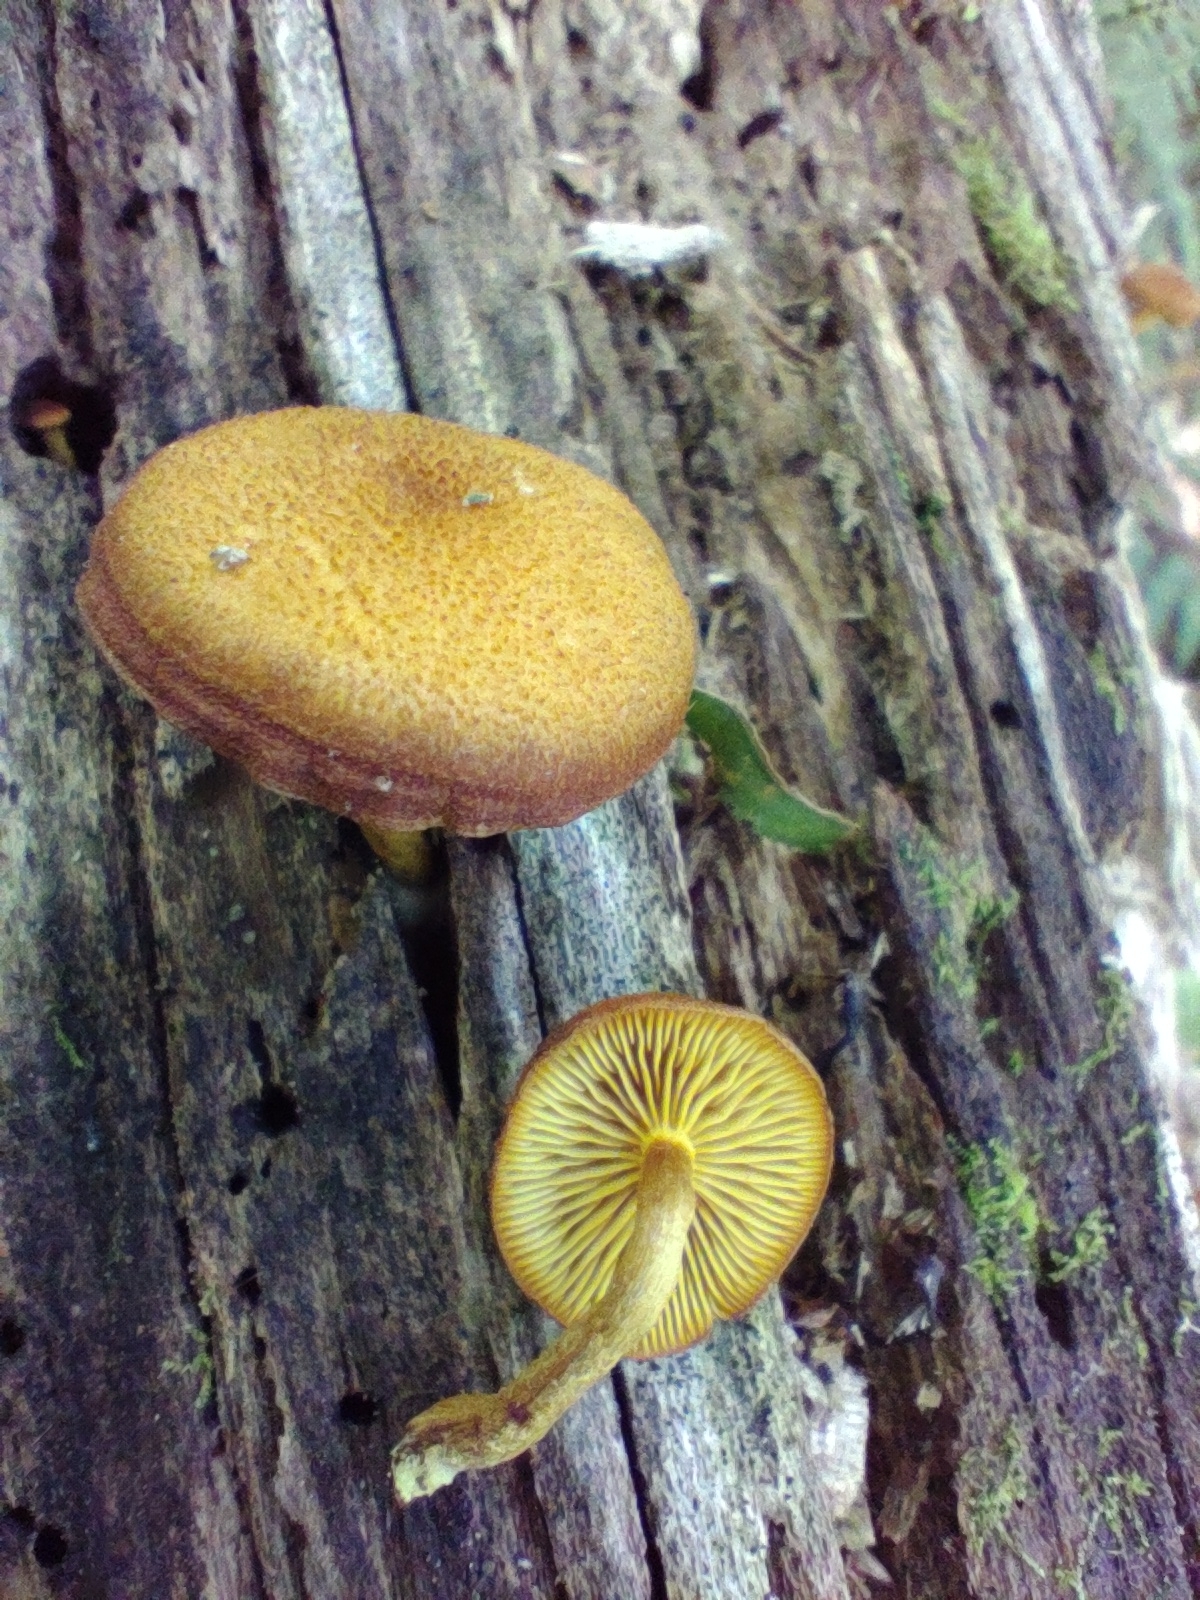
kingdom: Fungi
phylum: Basidiomycota
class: Agaricomycetes
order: Agaricales
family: Tubariaceae
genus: Phaeomarasmius
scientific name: Phaeomarasmius proximans
